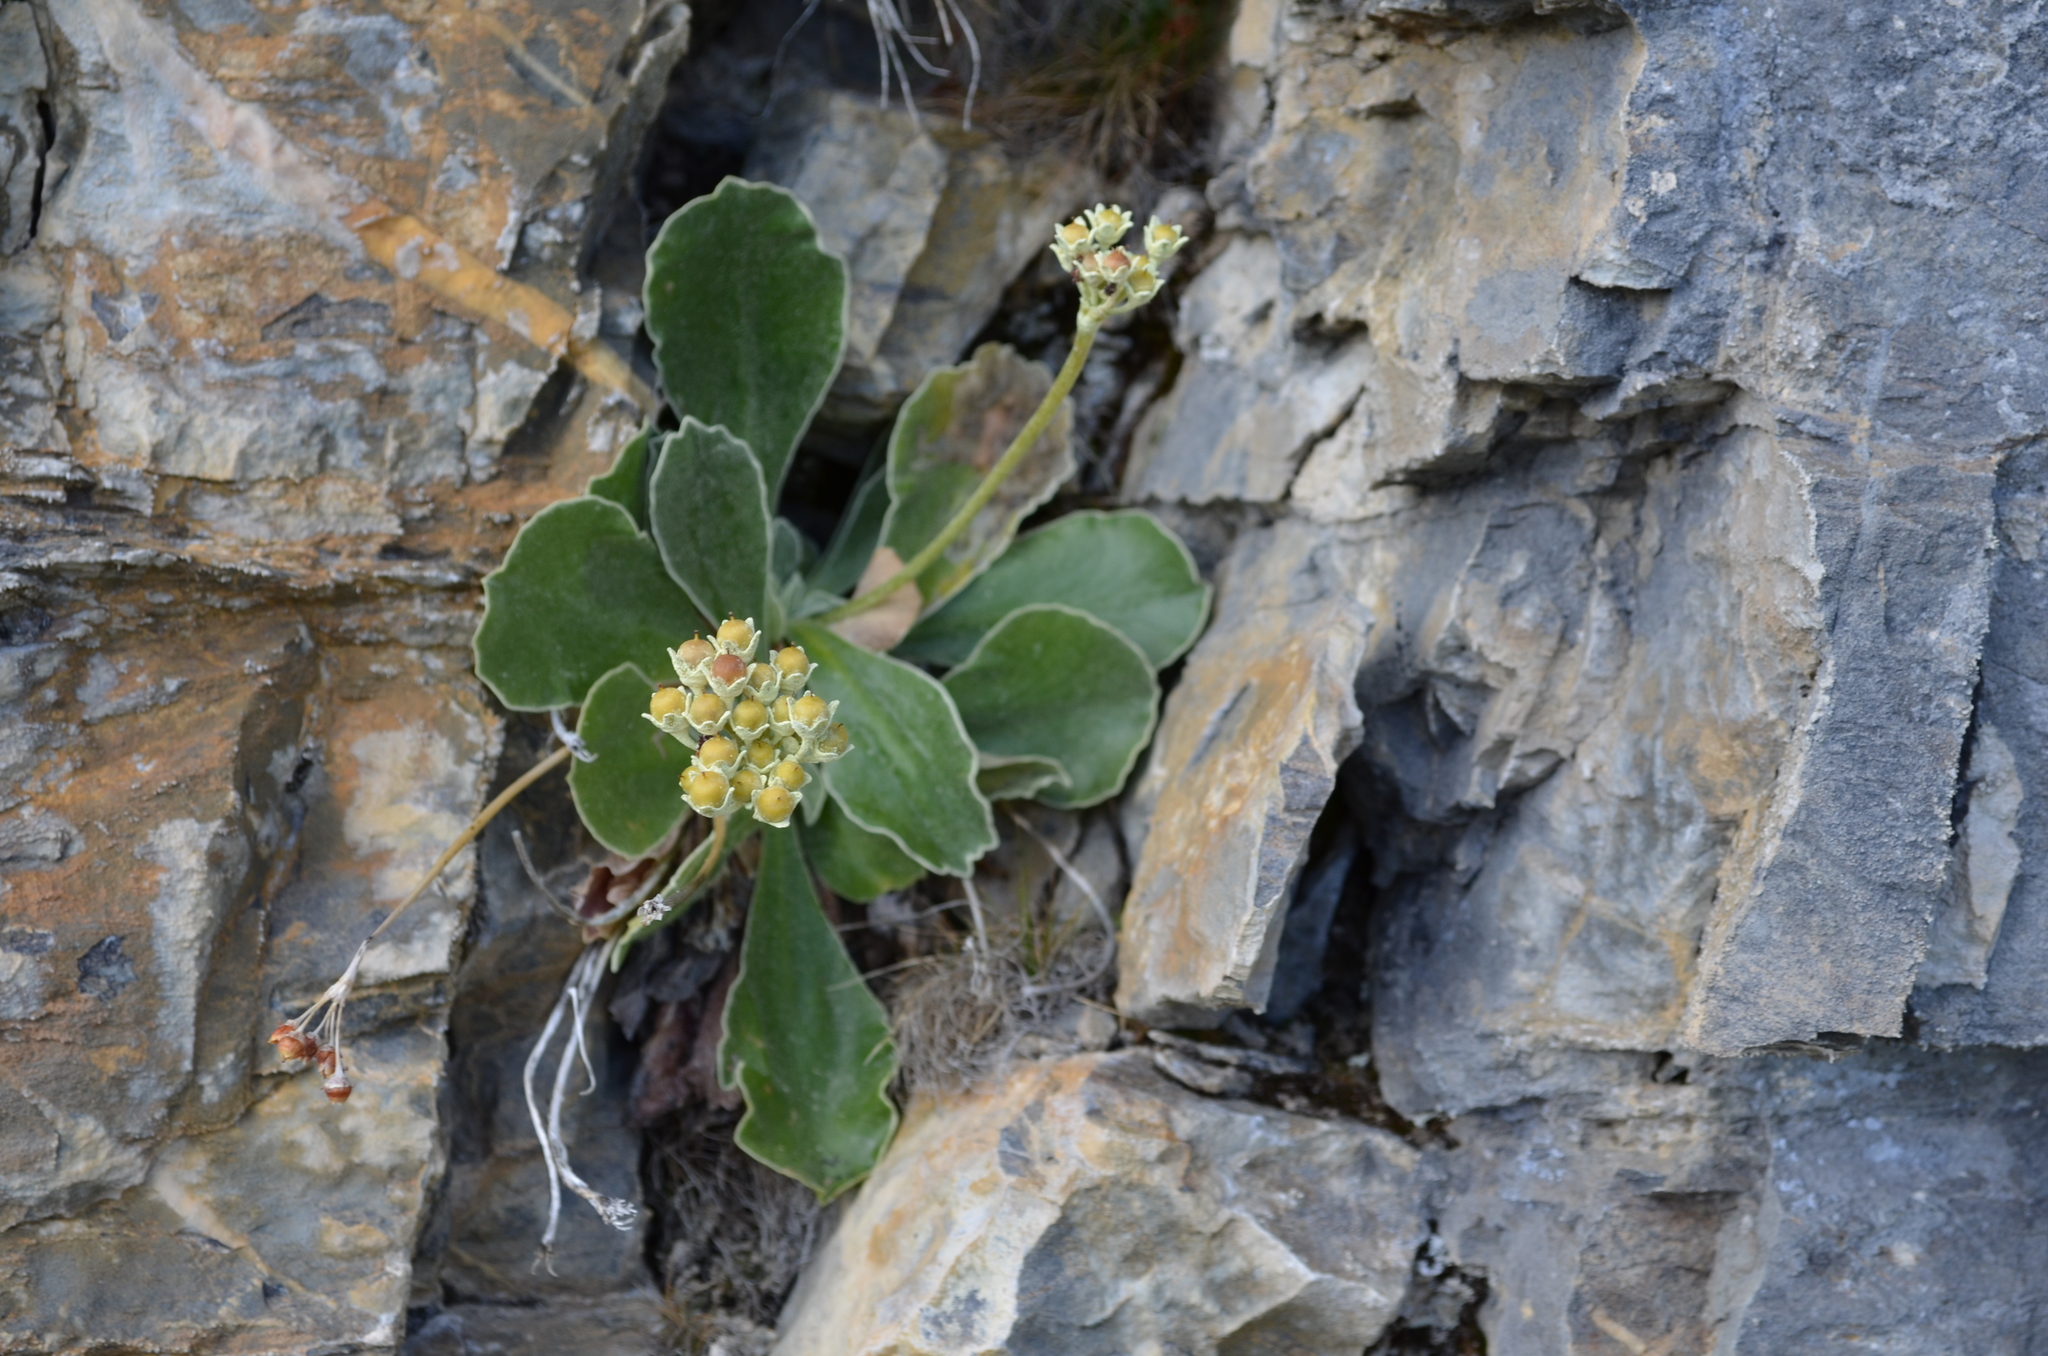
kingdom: Plantae
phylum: Tracheophyta
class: Magnoliopsida
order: Ericales
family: Primulaceae
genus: Primula
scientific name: Primula auricula
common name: Auricula
